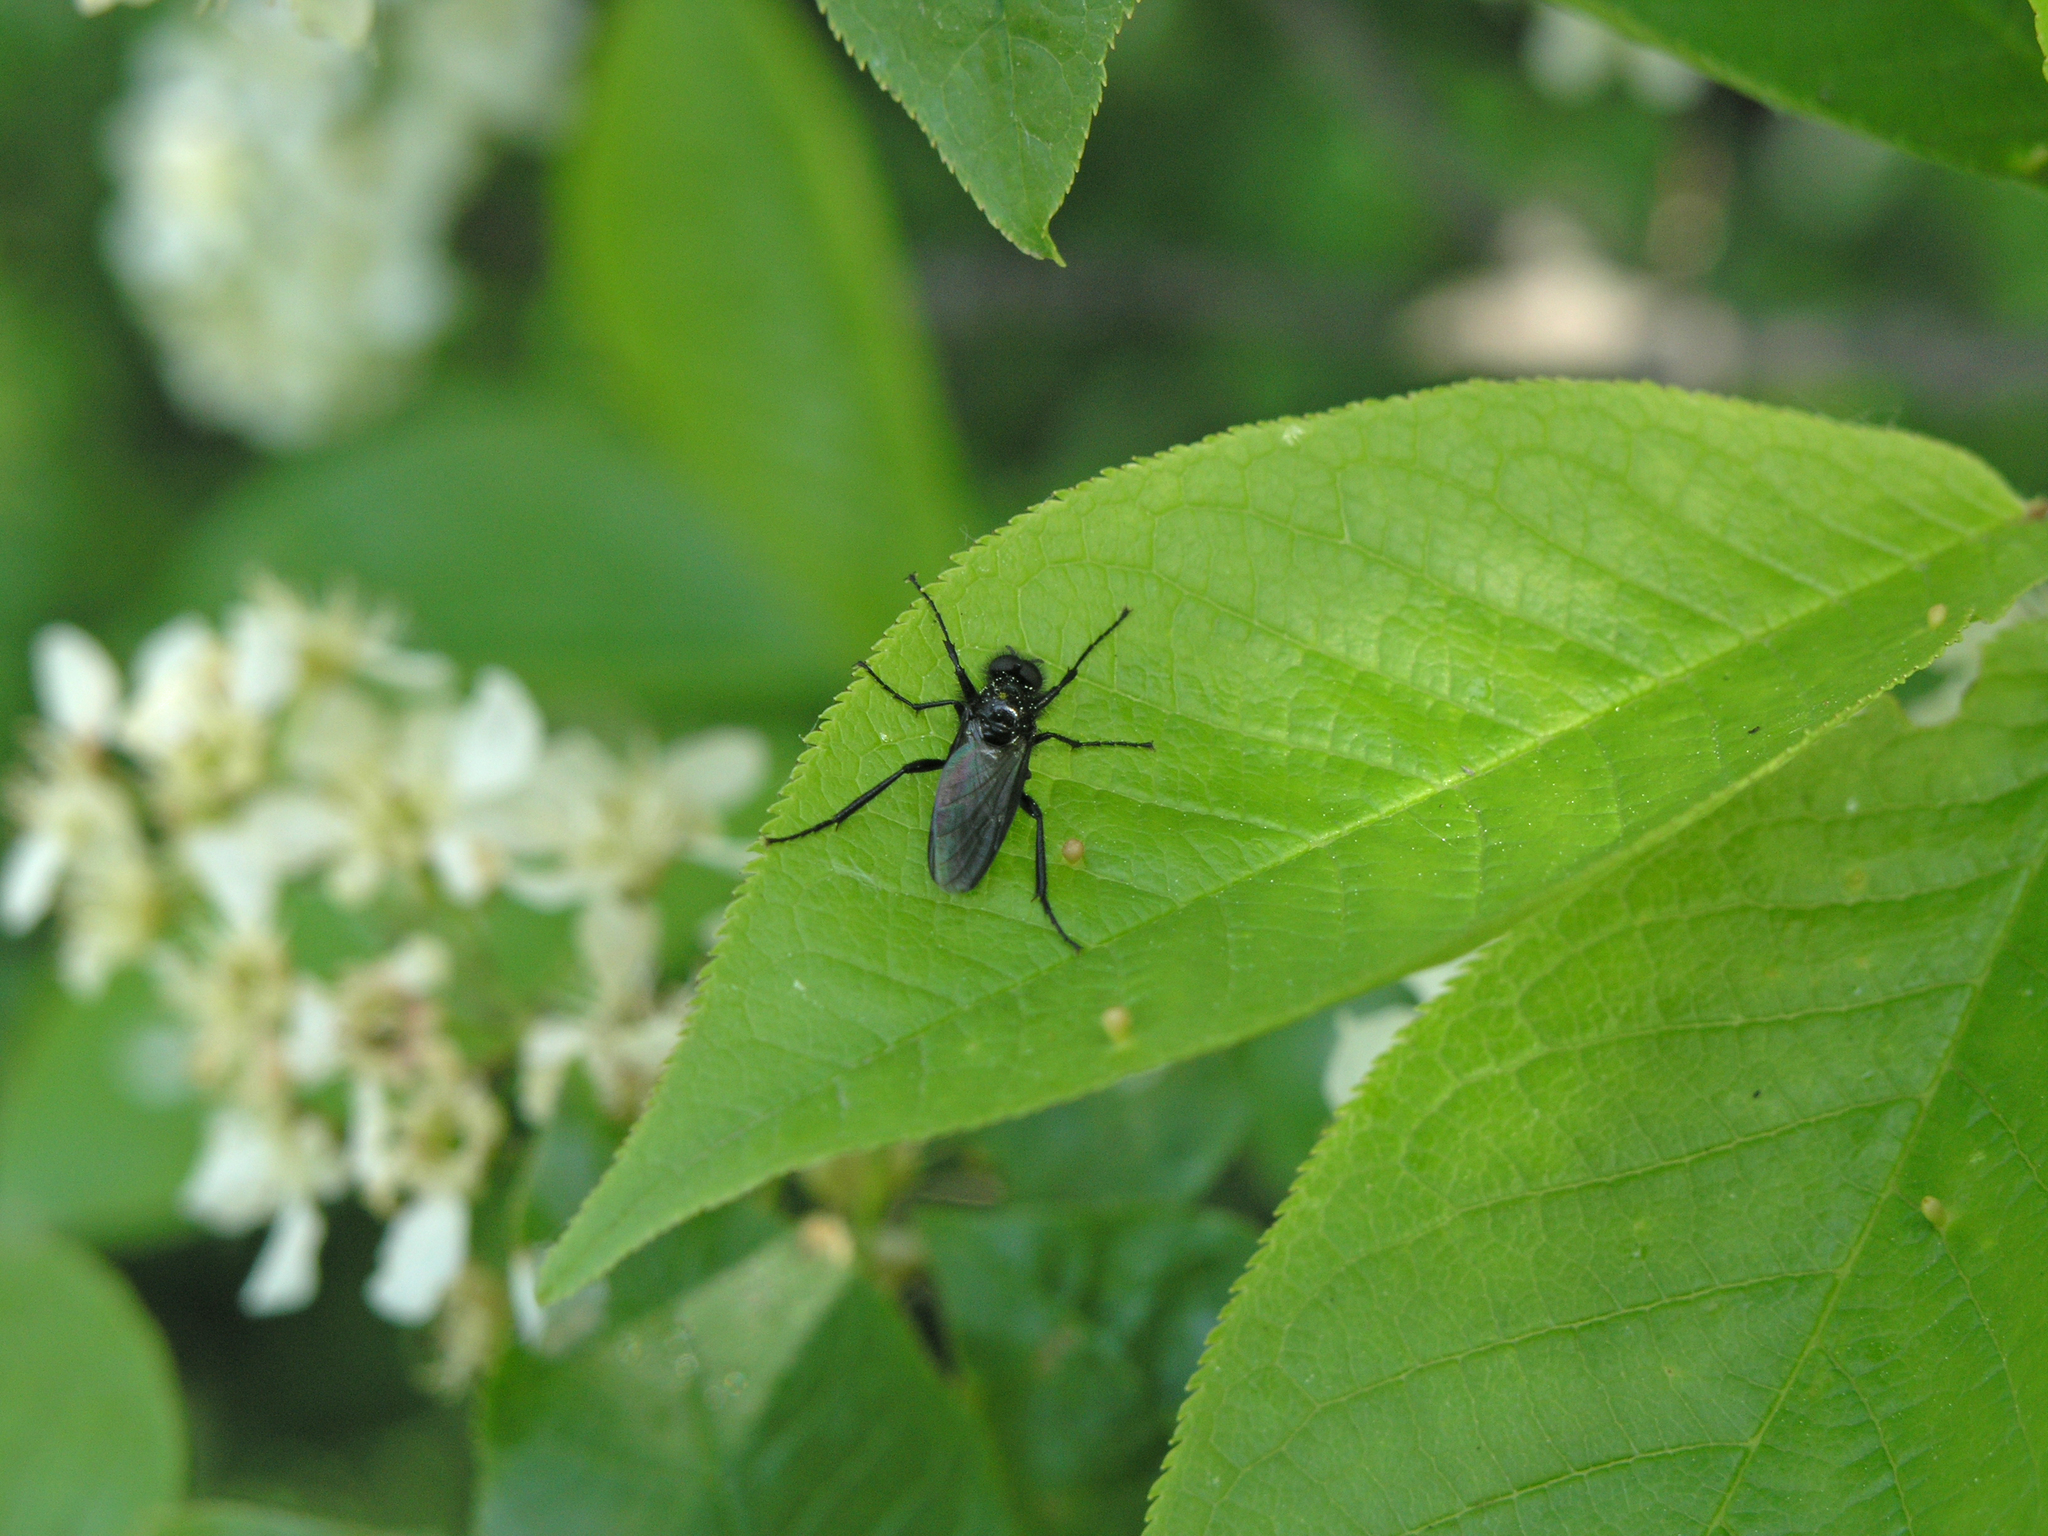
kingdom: Plantae
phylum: Tracheophyta
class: Magnoliopsida
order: Rosales
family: Rosaceae
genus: Prunus
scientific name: Prunus padus
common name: Bird cherry
